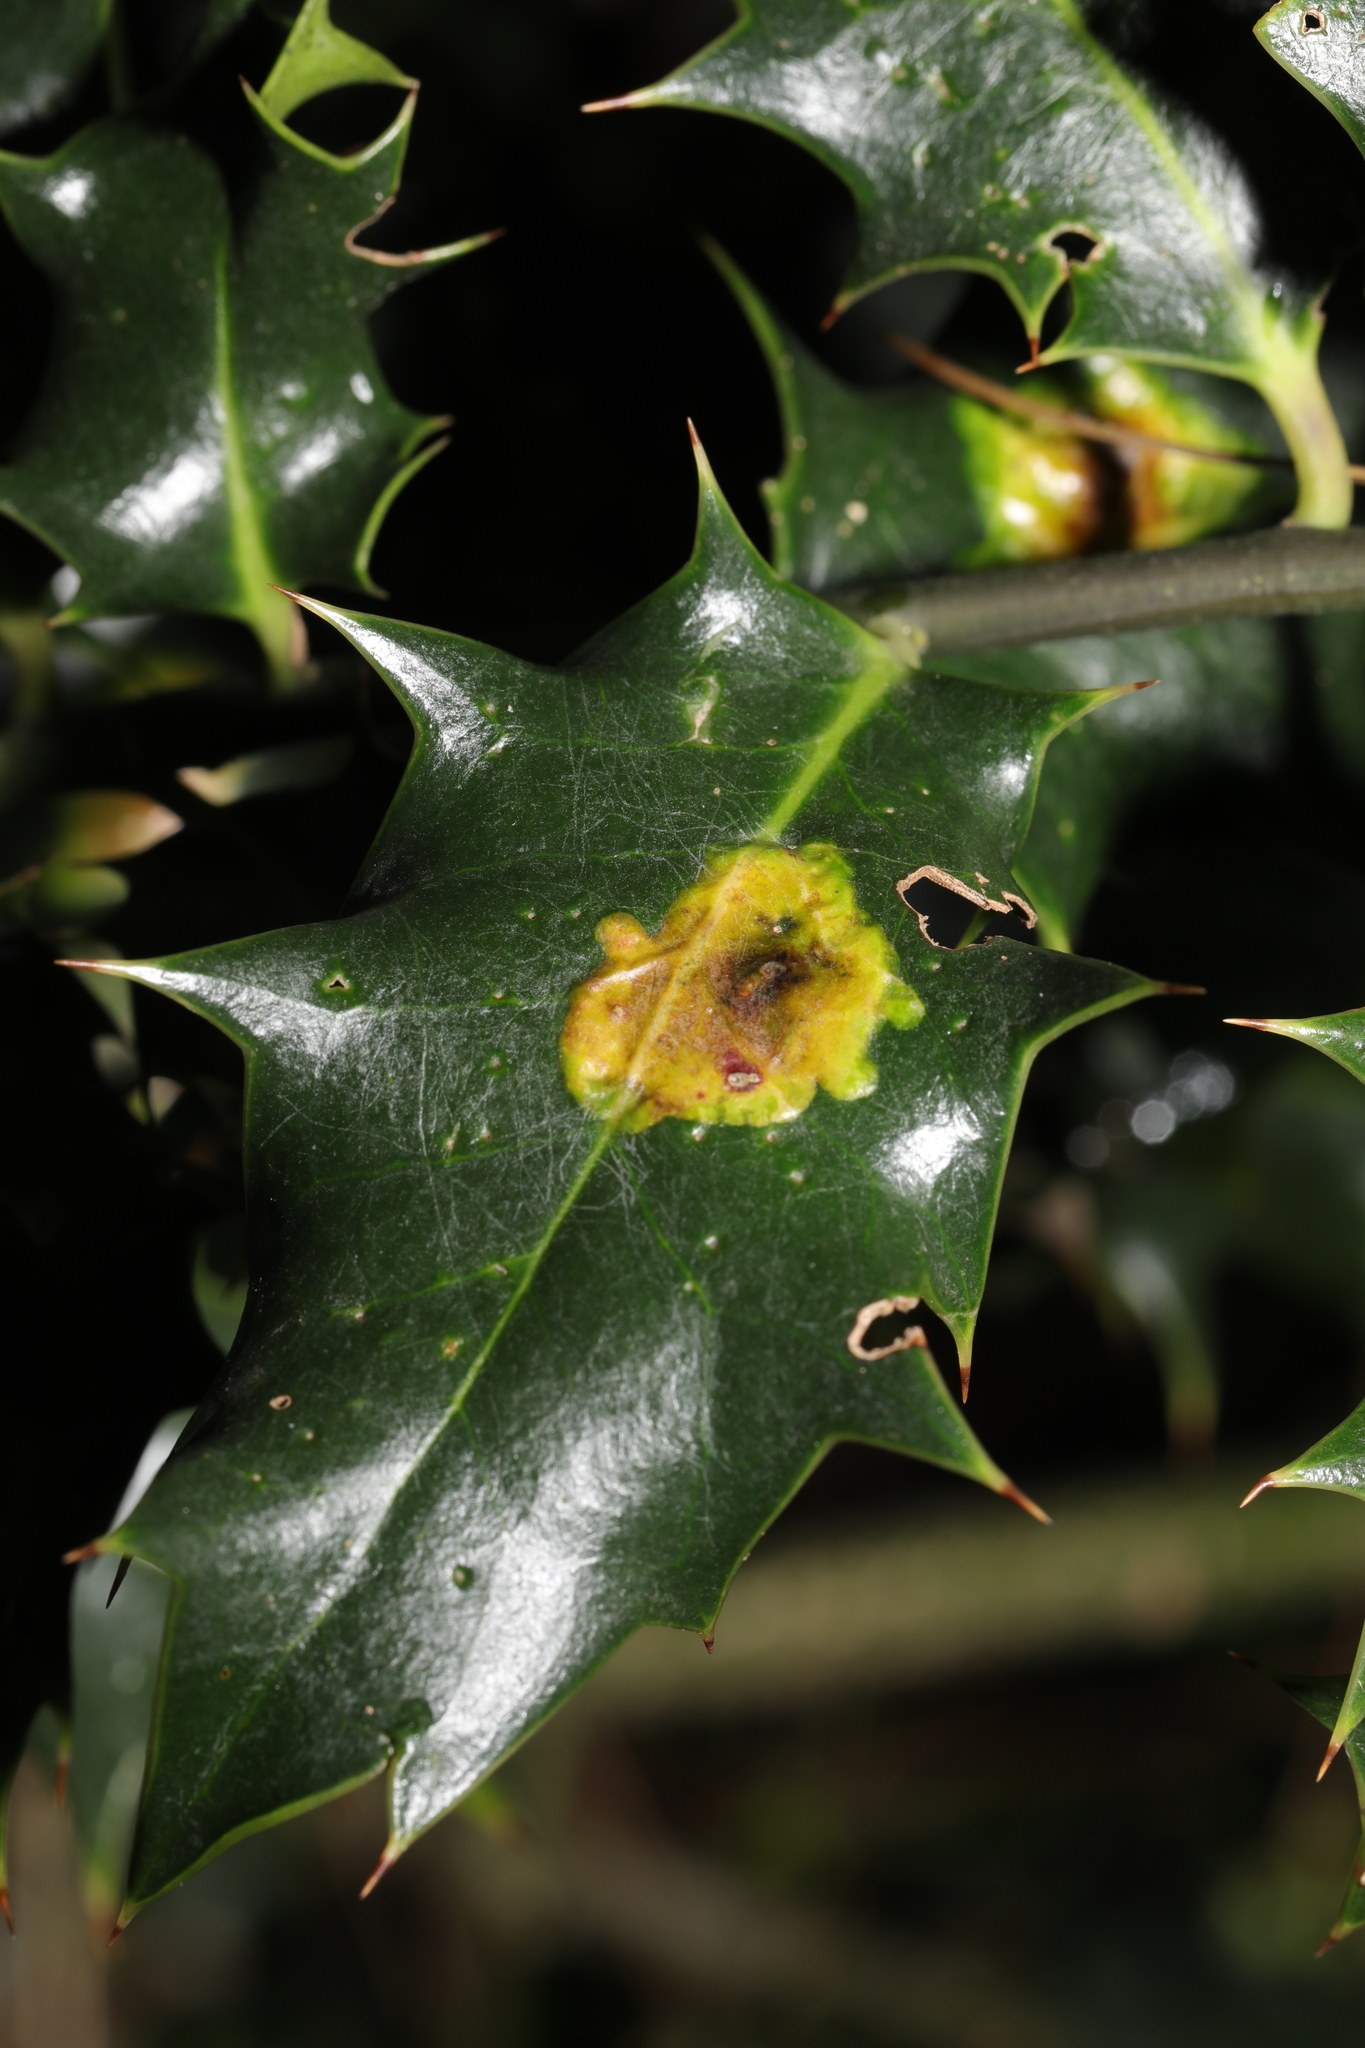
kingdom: Animalia
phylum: Arthropoda
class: Insecta
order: Diptera
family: Agromyzidae
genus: Phytomyza
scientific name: Phytomyza ilicis
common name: Holly leafminer
